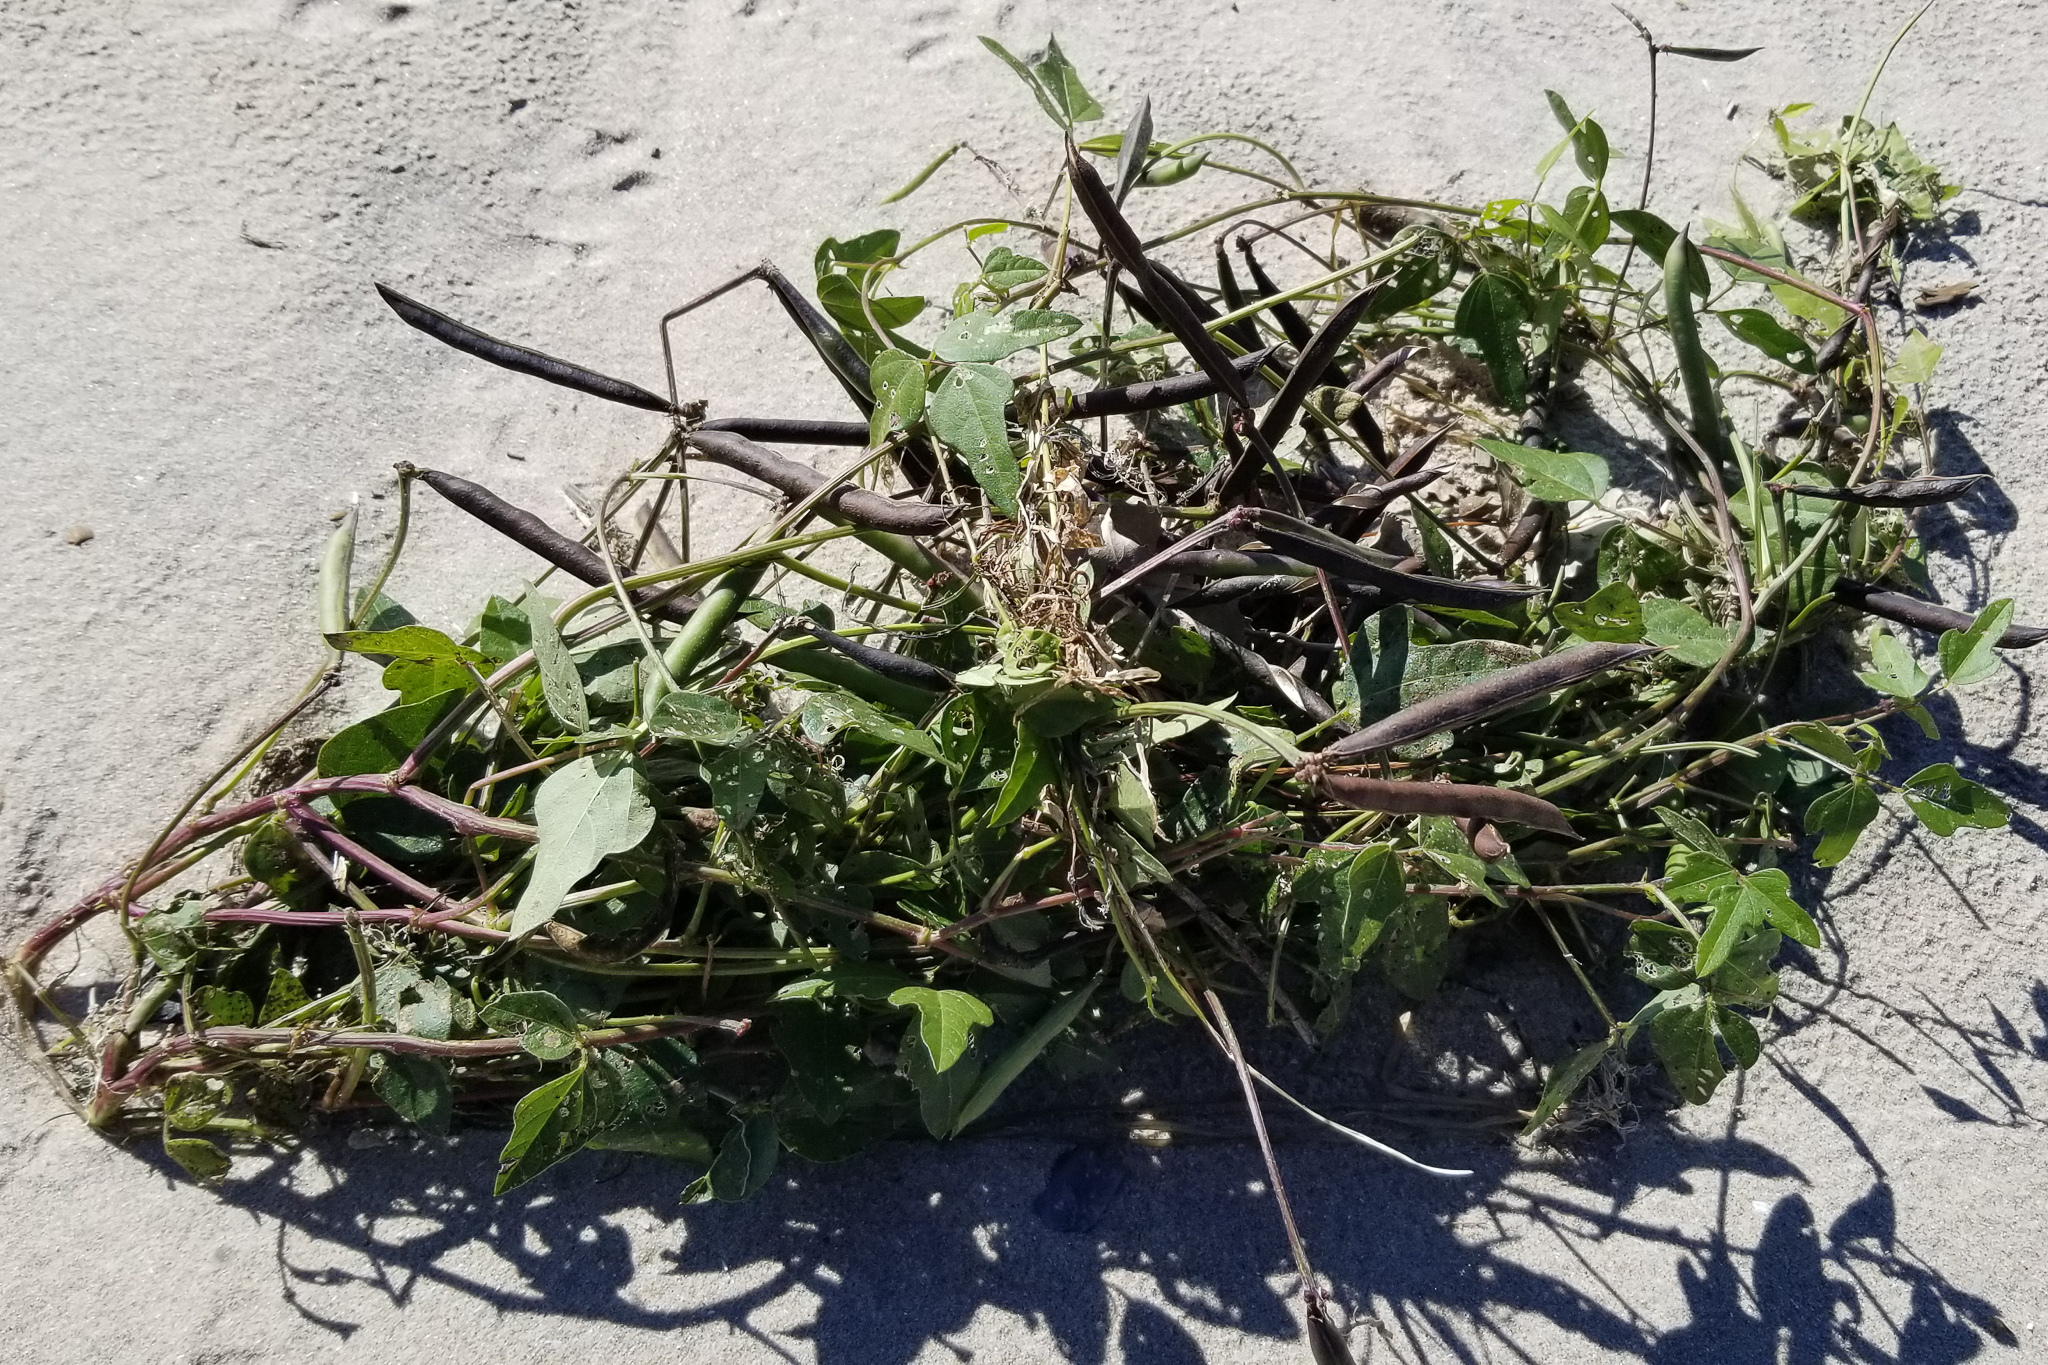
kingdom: Plantae
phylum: Tracheophyta
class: Magnoliopsida
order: Fabales
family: Fabaceae
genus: Strophostyles
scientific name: Strophostyles helvola
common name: Trailing wild bean
